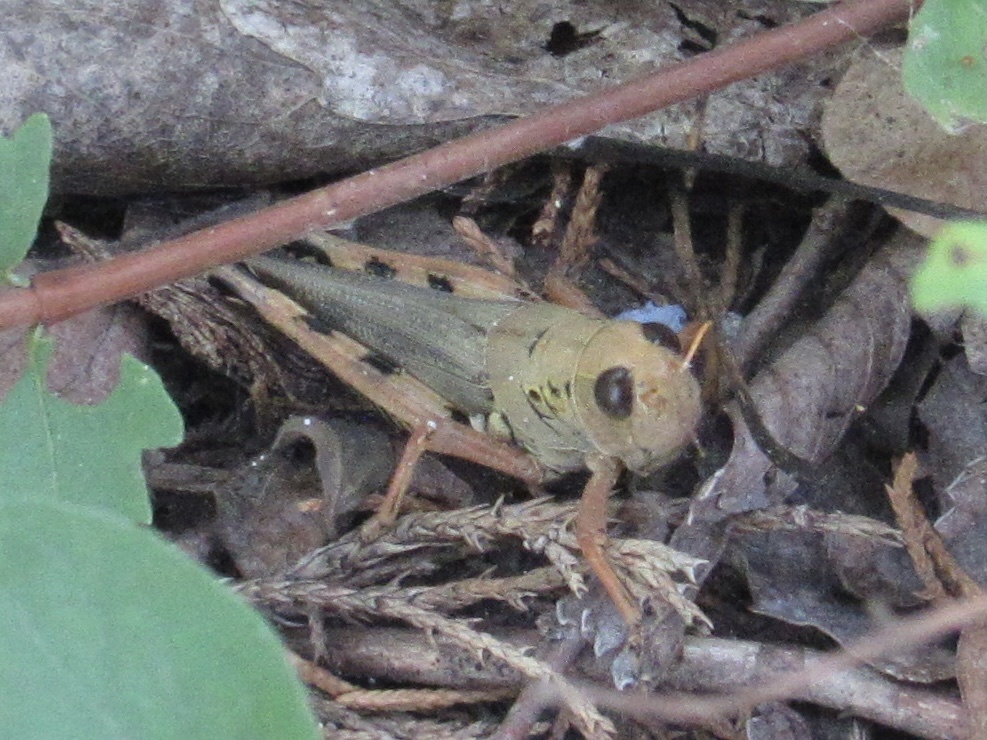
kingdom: Animalia
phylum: Arthropoda
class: Insecta
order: Orthoptera
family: Acrididae
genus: Melanoplus
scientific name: Melanoplus differentialis
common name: Differential grasshopper
